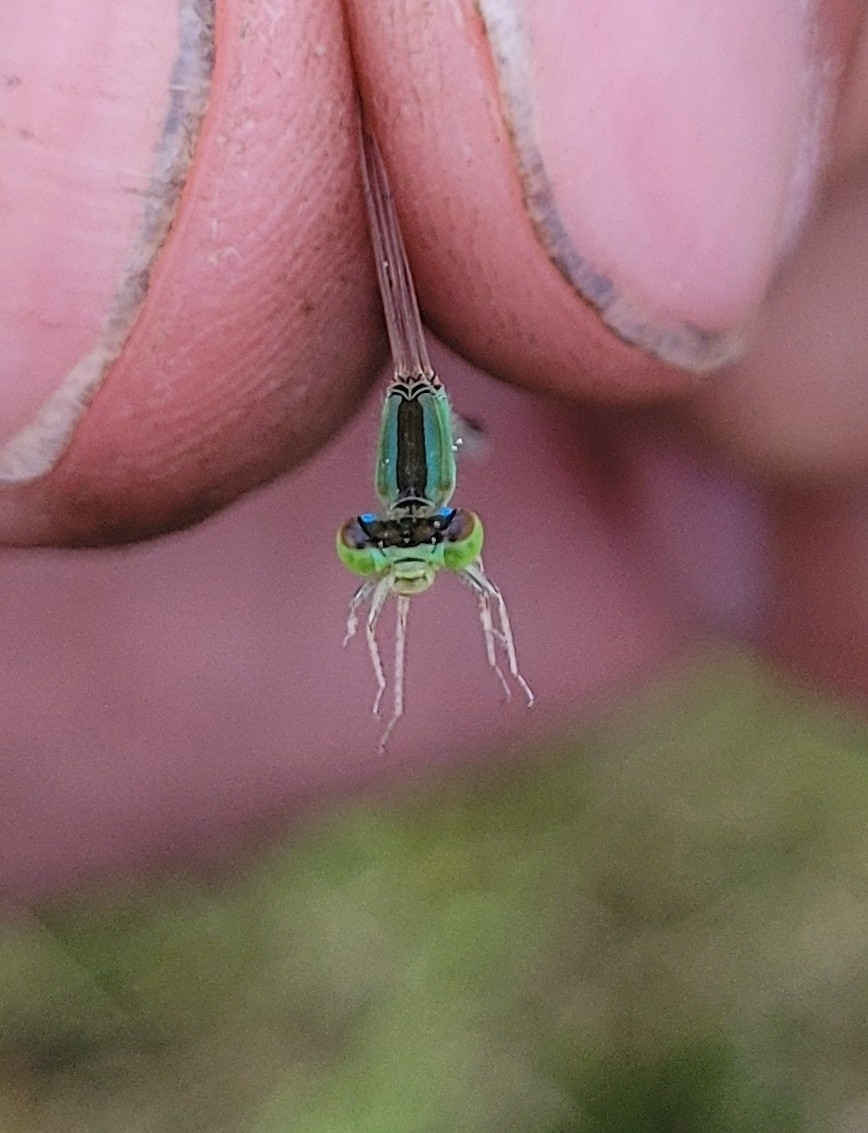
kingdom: Animalia
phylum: Arthropoda
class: Insecta
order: Odonata
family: Coenagrionidae
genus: Ischnura
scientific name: Ischnura asiatica
